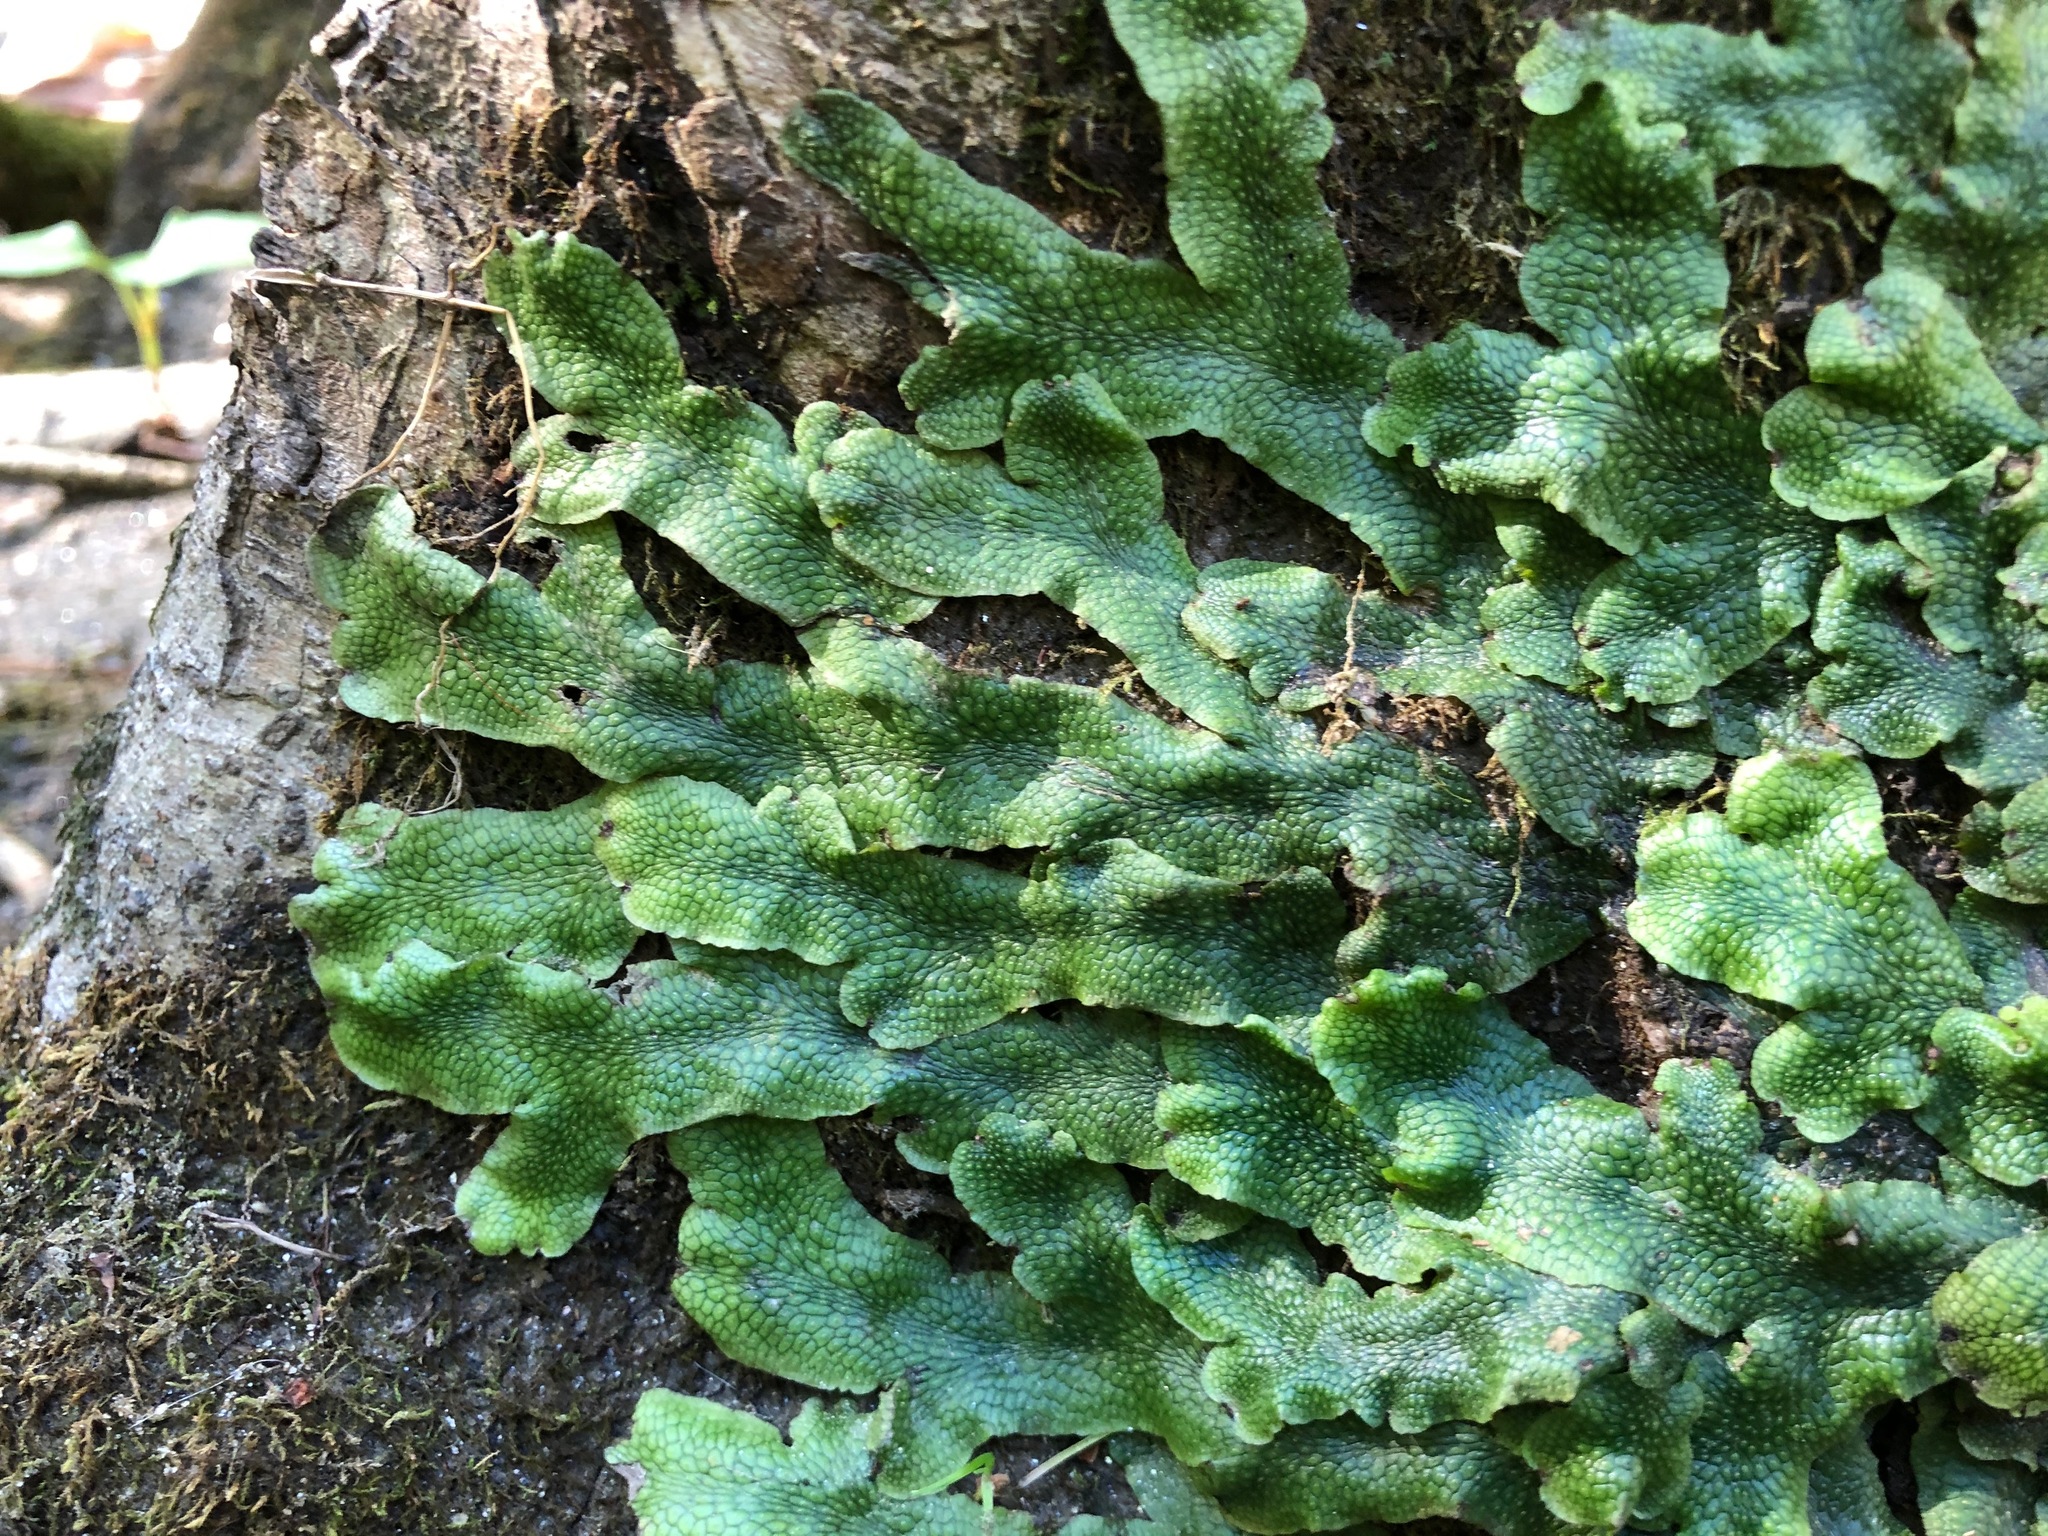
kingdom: Plantae
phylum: Marchantiophyta
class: Marchantiopsida
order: Marchantiales
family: Conocephalaceae
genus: Conocephalum
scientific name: Conocephalum salebrosum
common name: Cat-tongue liverwort
